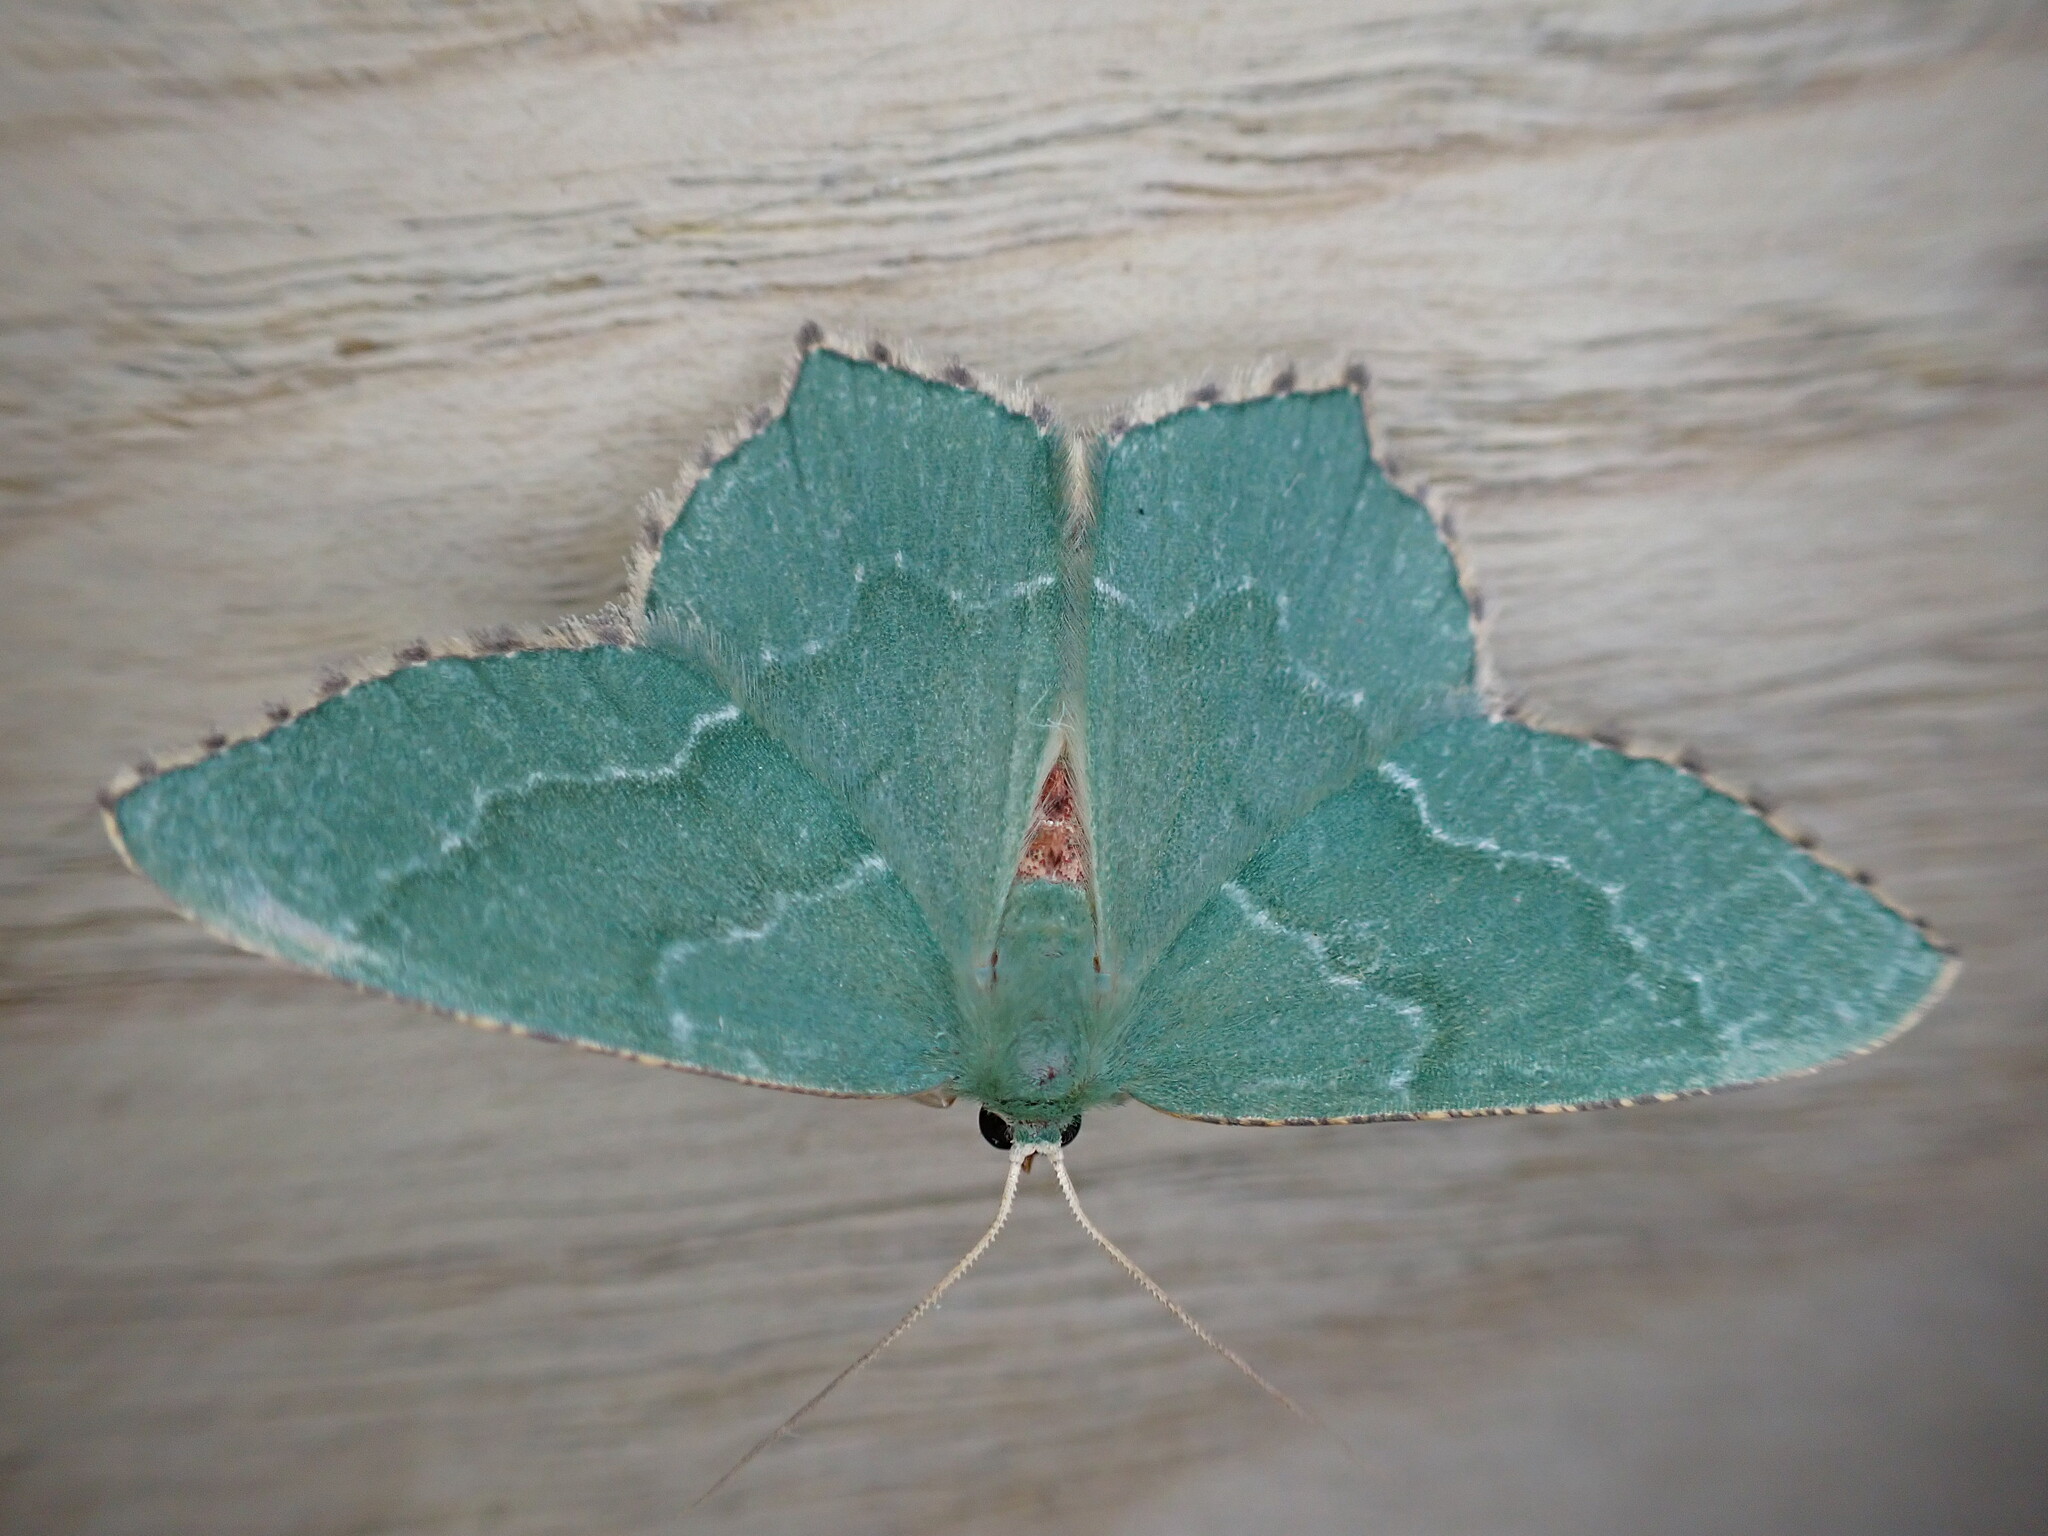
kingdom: Animalia
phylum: Arthropoda
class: Insecta
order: Lepidoptera
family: Geometridae
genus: Hemithea
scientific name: Hemithea aestivaria
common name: Common emerald
